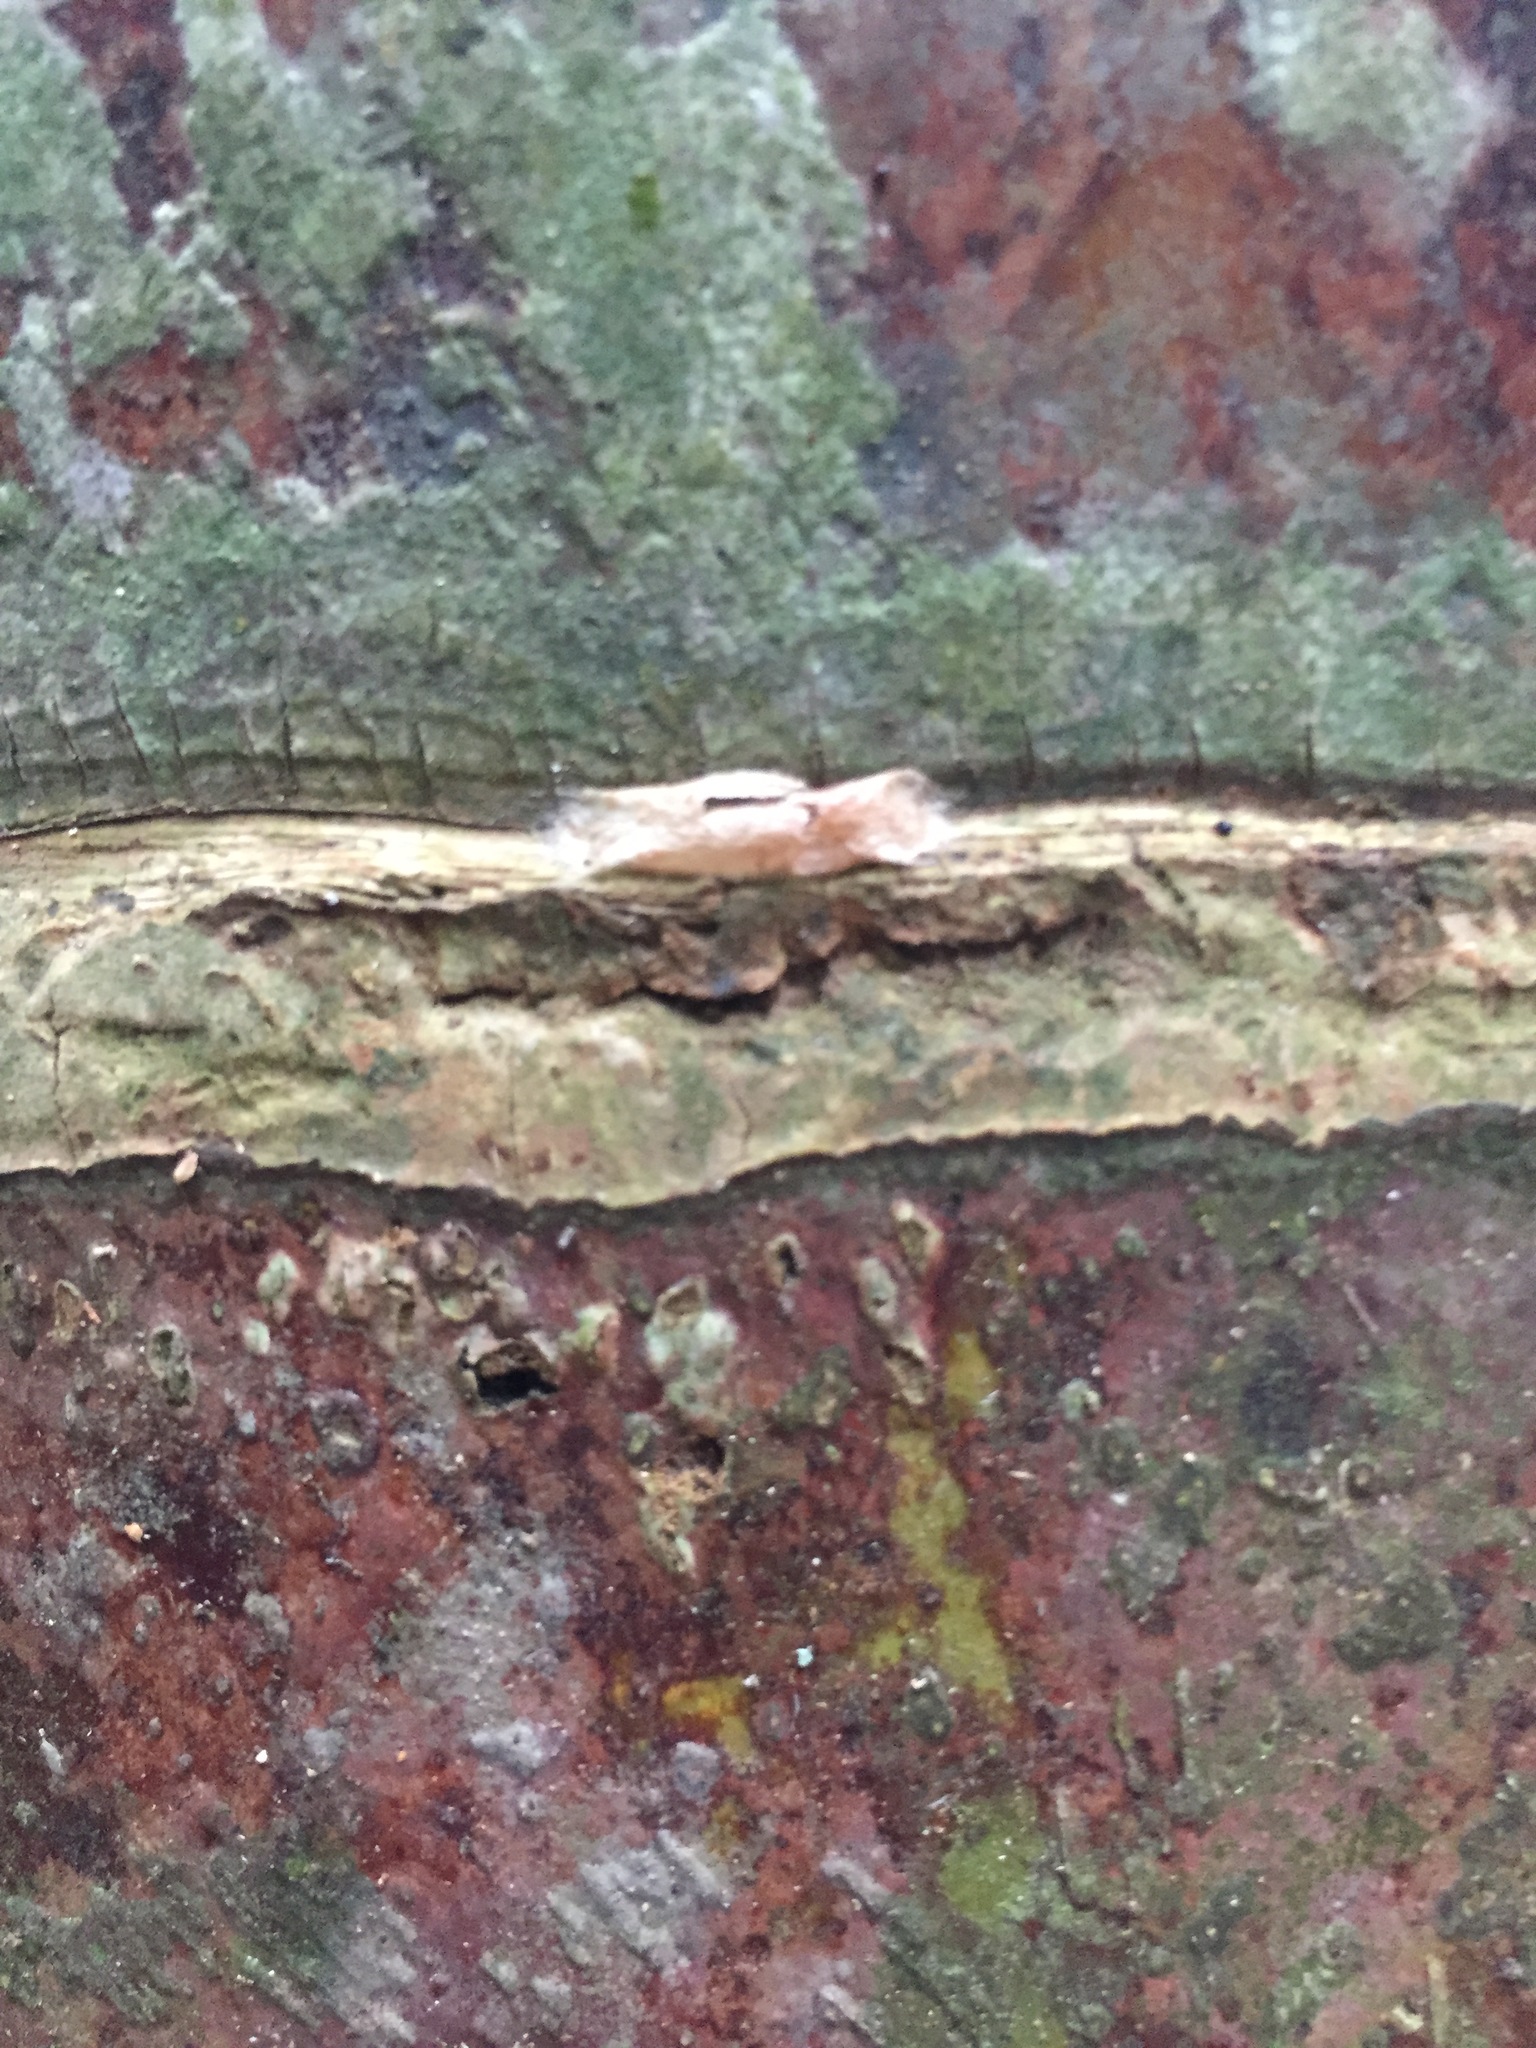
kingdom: Animalia
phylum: Arthropoda
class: Insecta
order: Lepidoptera
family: Plutellidae
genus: Doxophyrtis
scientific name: Doxophyrtis hydrocosma
